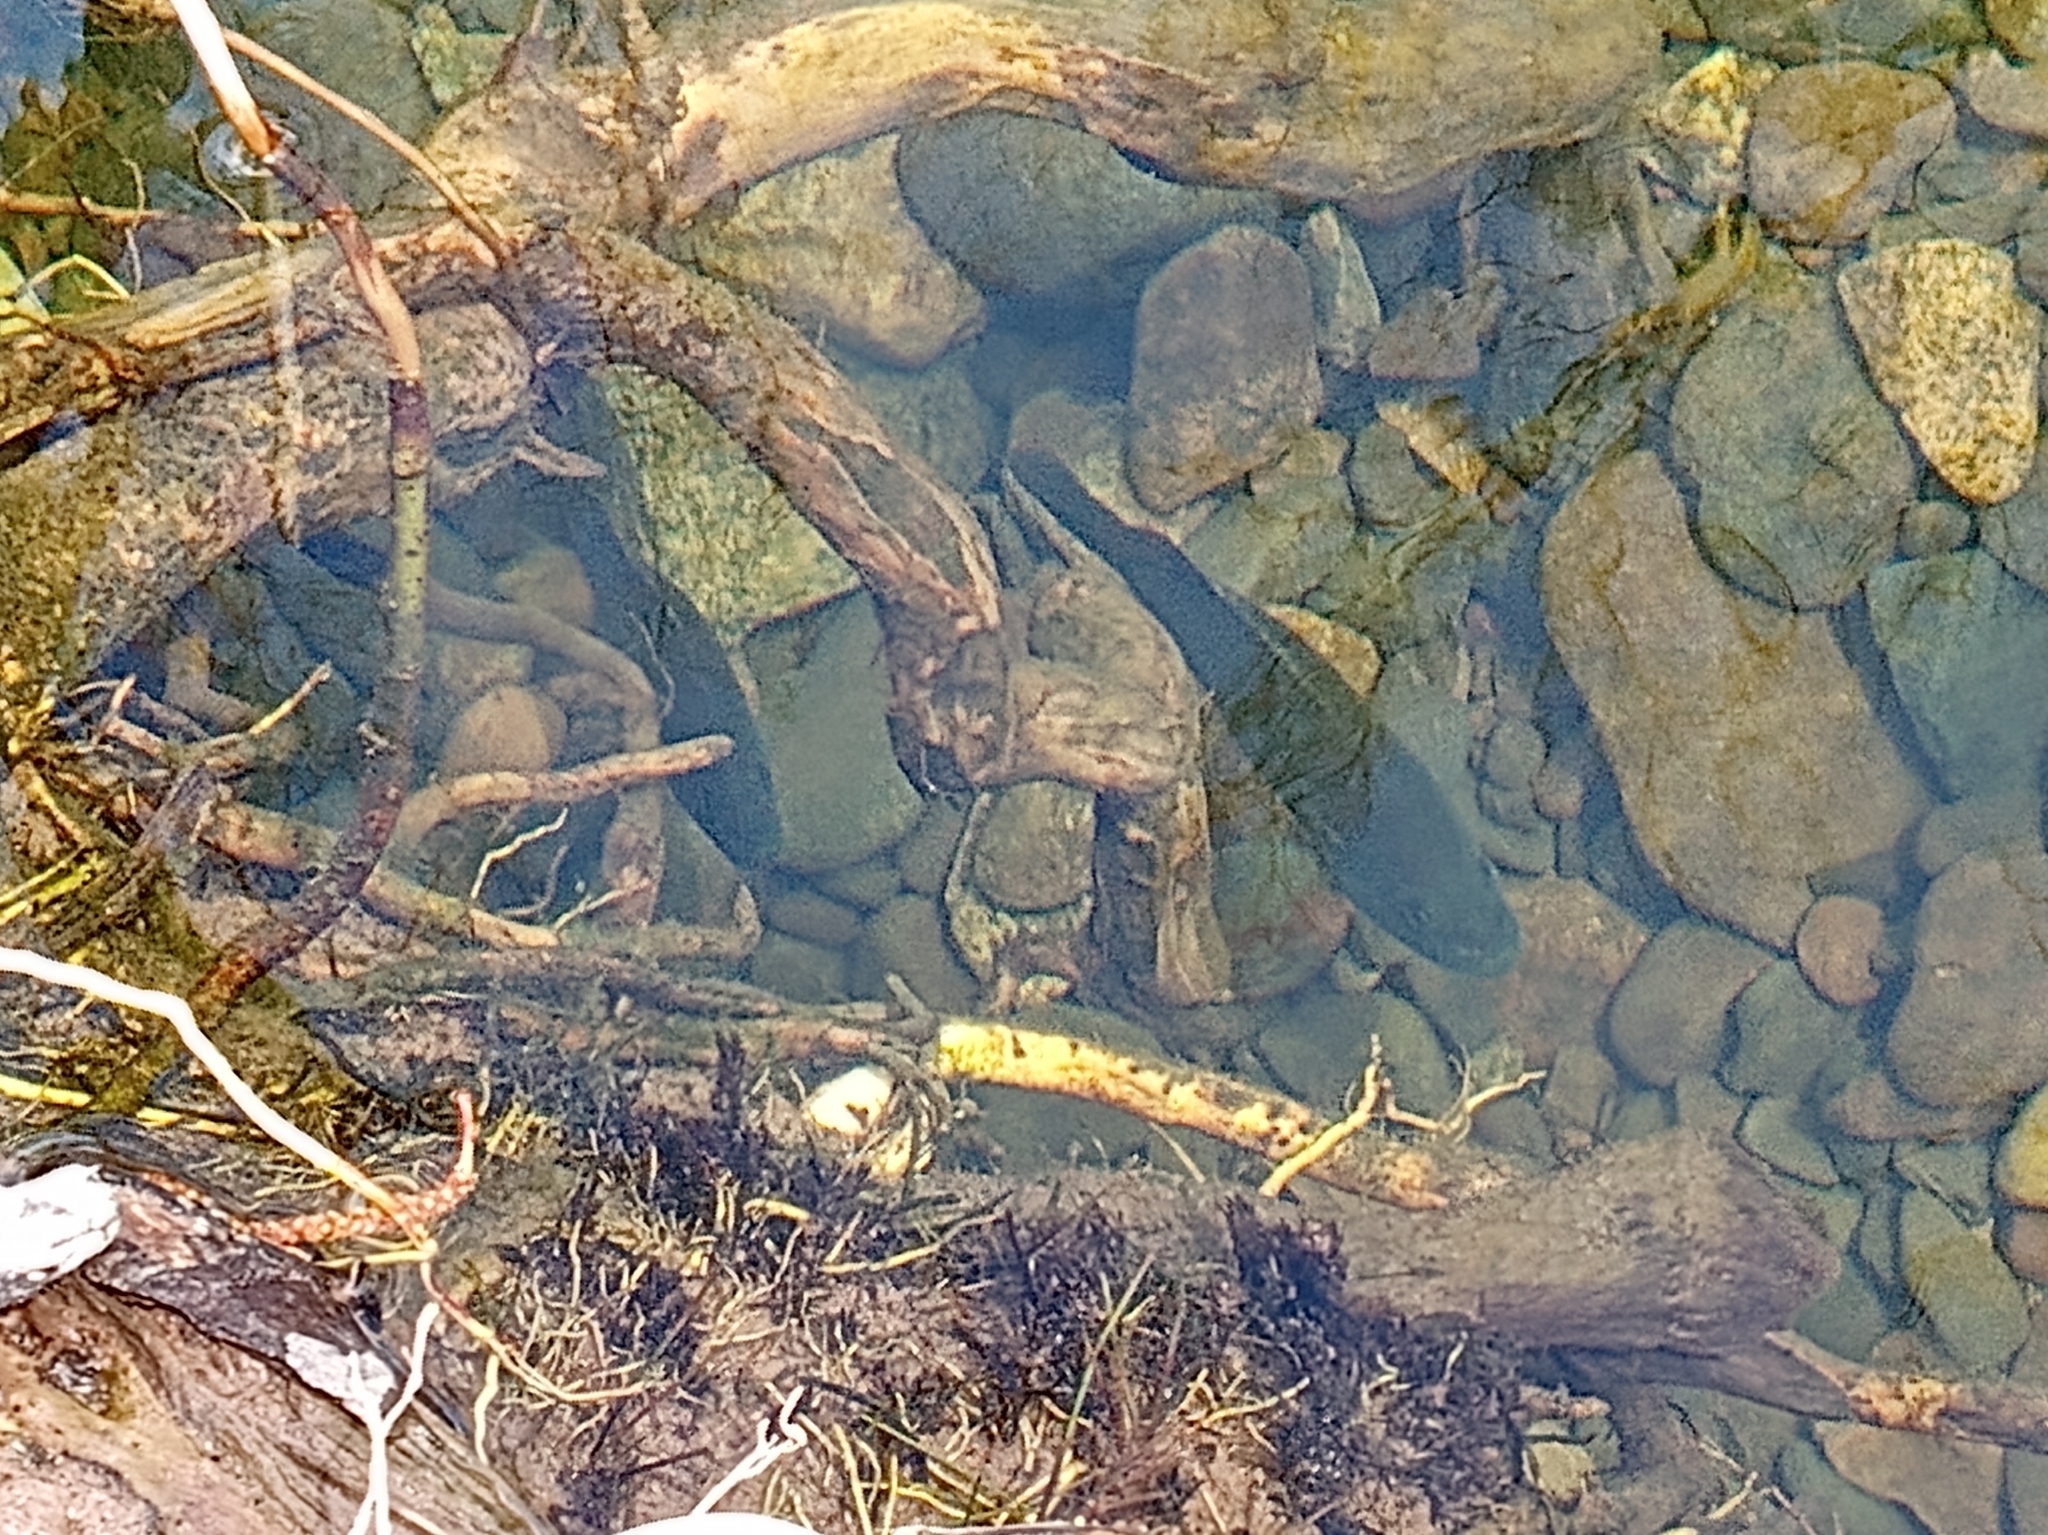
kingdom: Animalia
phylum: Chordata
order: Perciformes
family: Centrarchidae
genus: Lepomis
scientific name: Lepomis cyanellus
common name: Green sunfish
